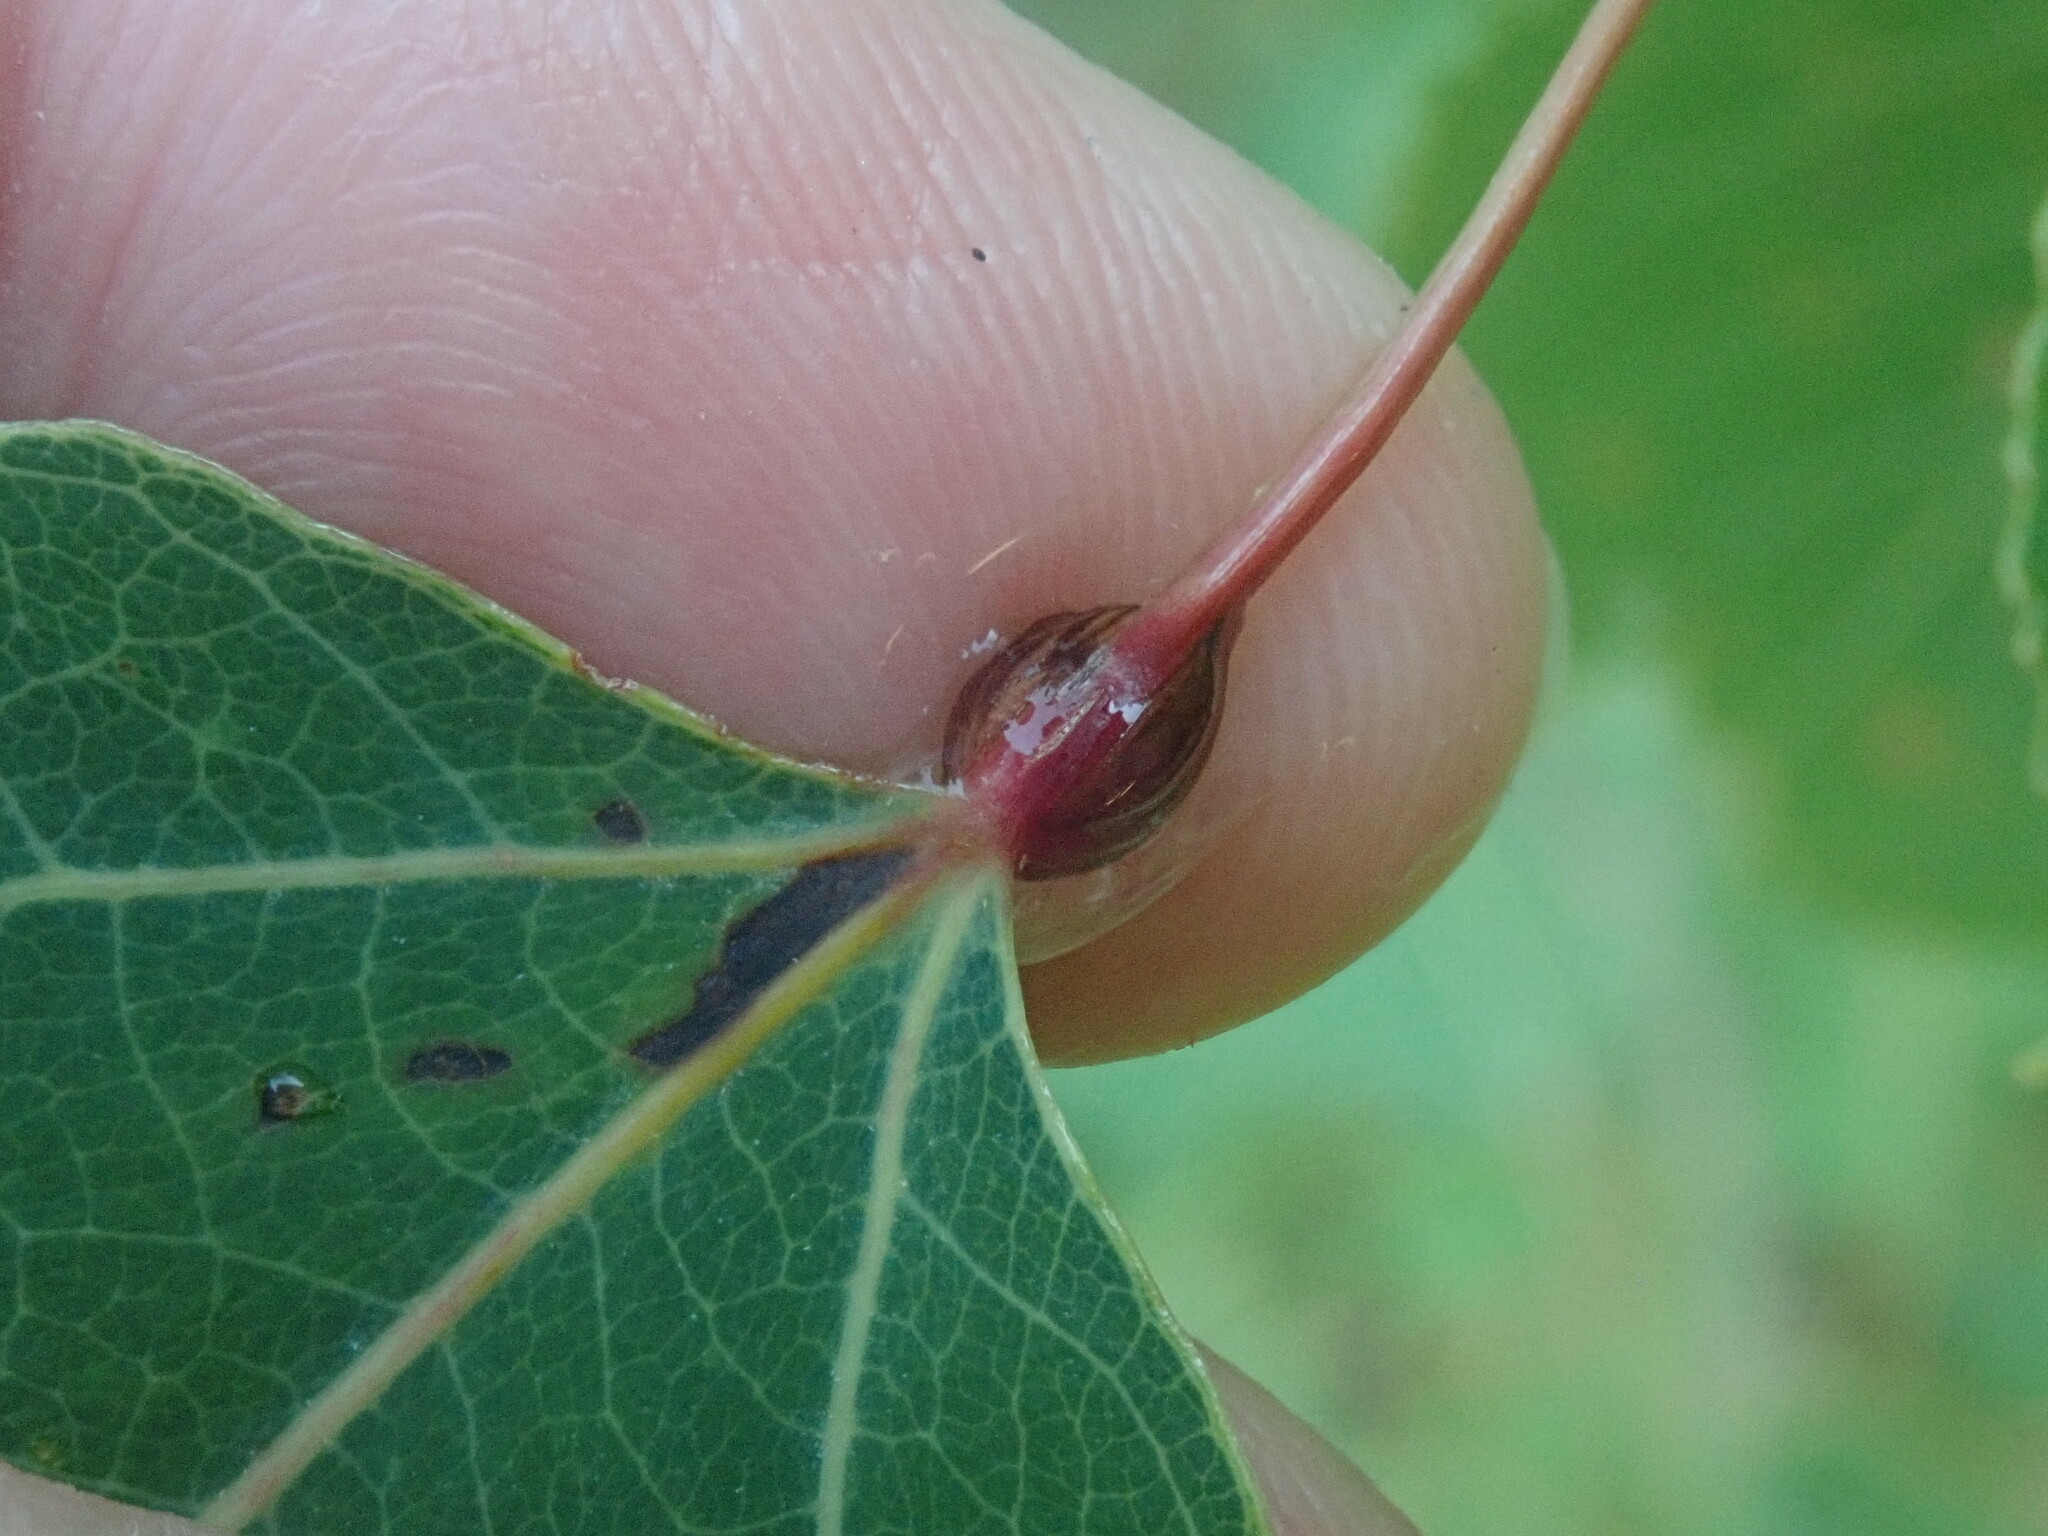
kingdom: Animalia
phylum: Arthropoda
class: Insecta
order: Lepidoptera
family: Nepticulidae
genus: Ectoedemia
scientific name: Ectoedemia populella
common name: Aspen petiole gall moth
